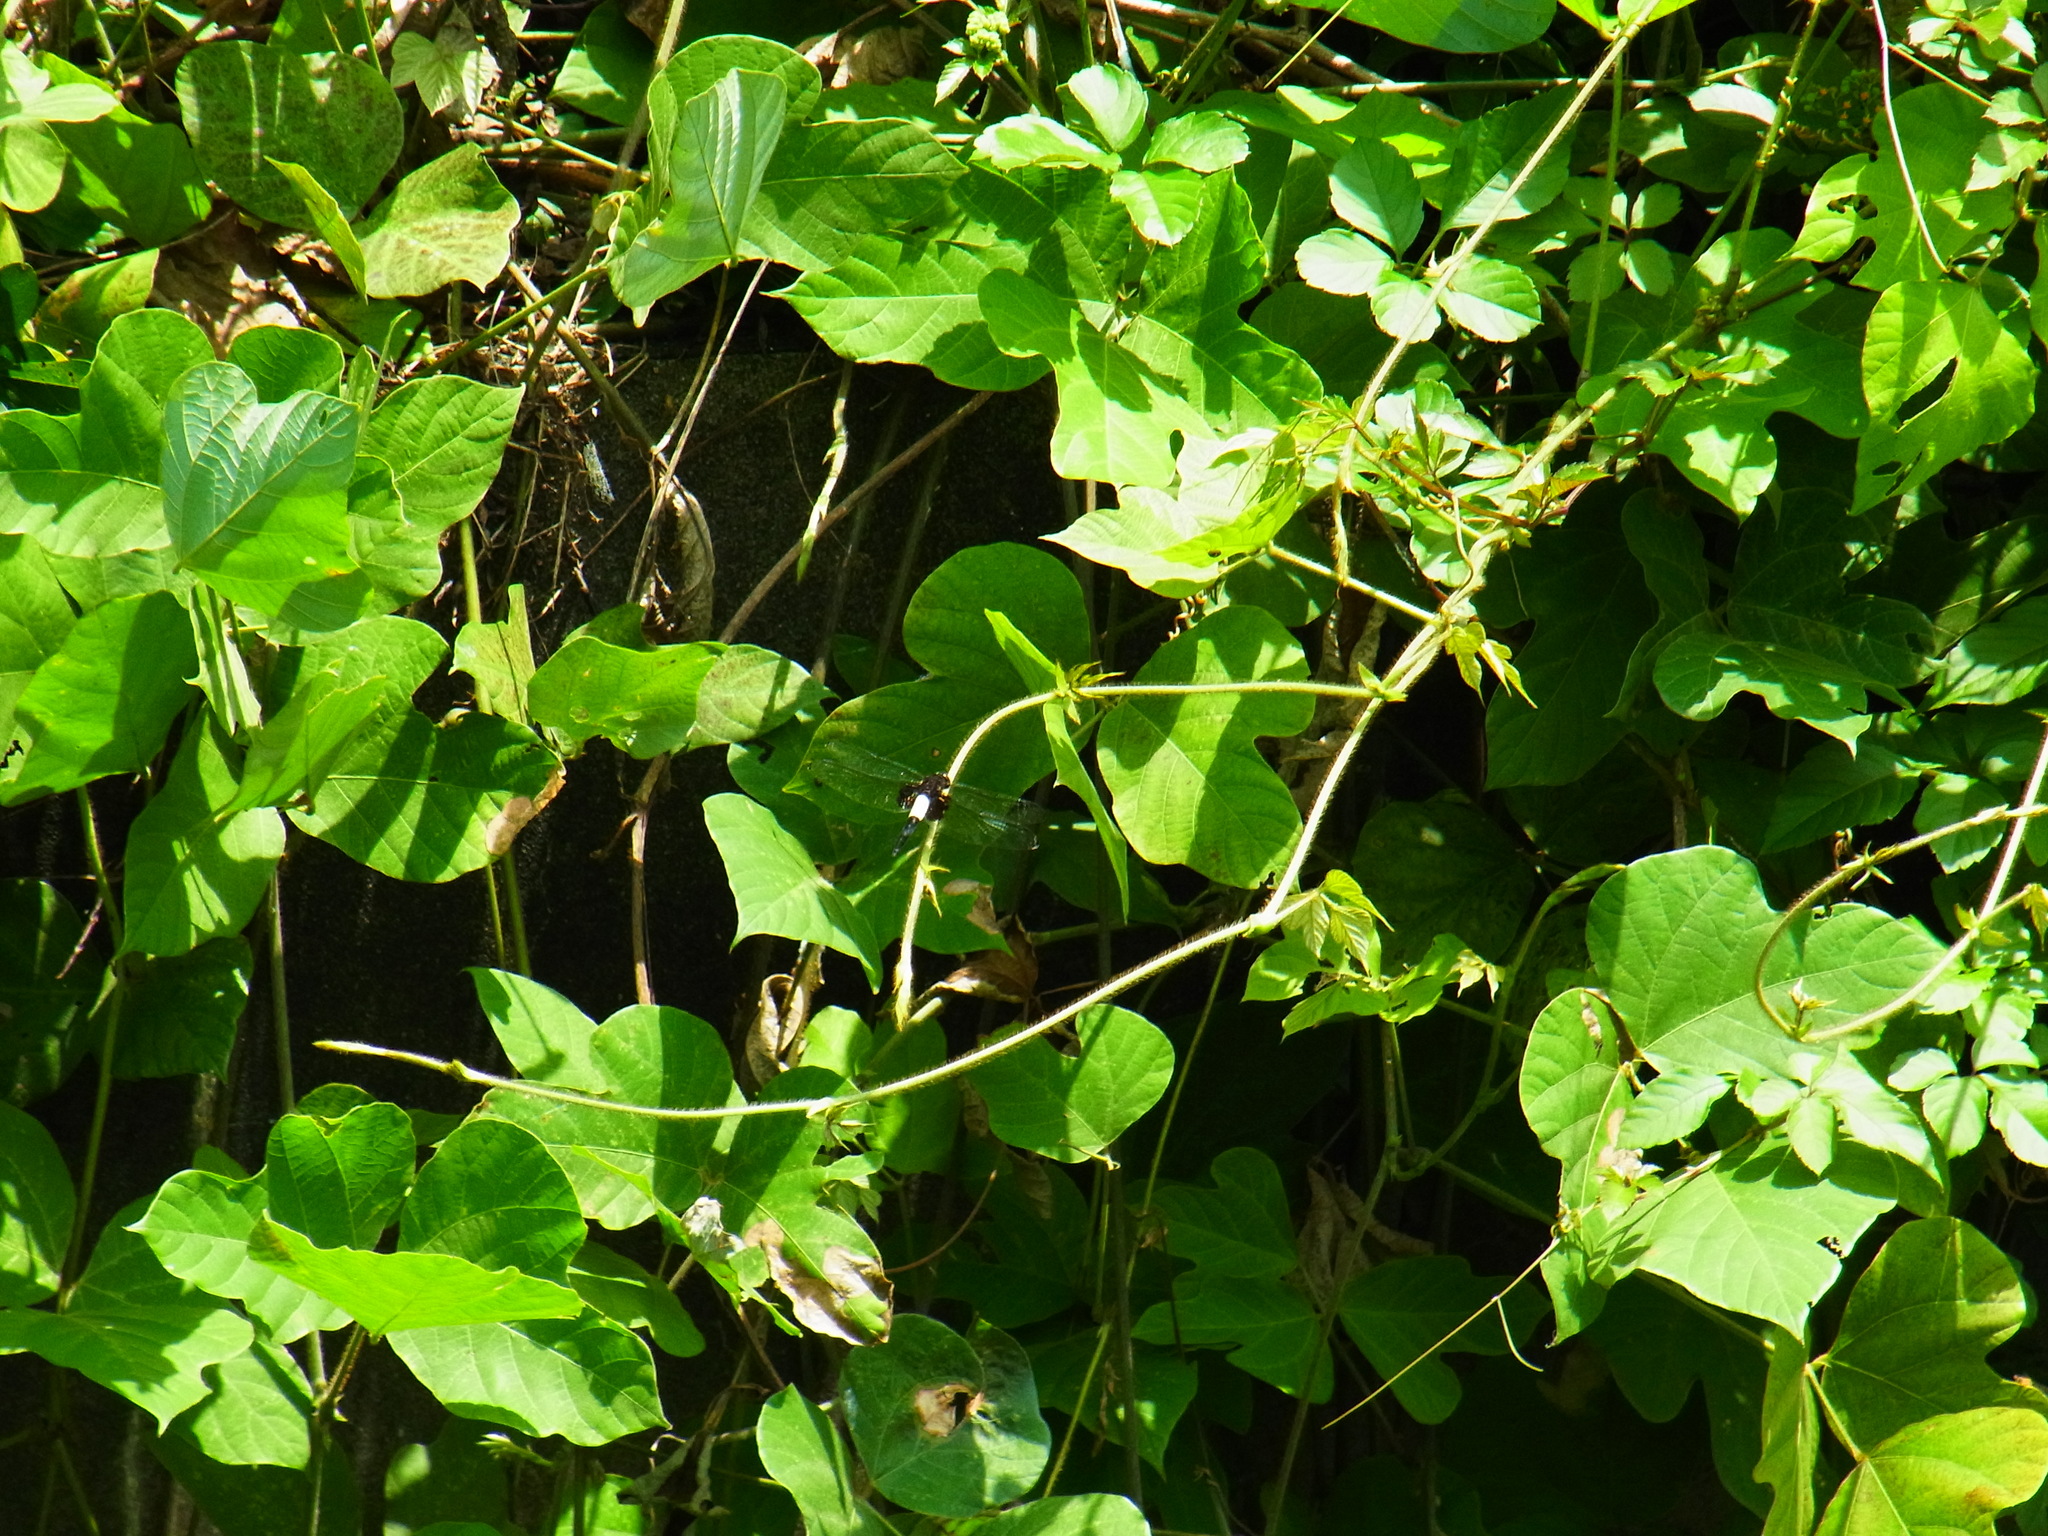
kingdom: Animalia
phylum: Arthropoda
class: Insecta
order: Odonata
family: Libellulidae
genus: Pseudothemis
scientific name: Pseudothemis zonata
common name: Pied skimmer
